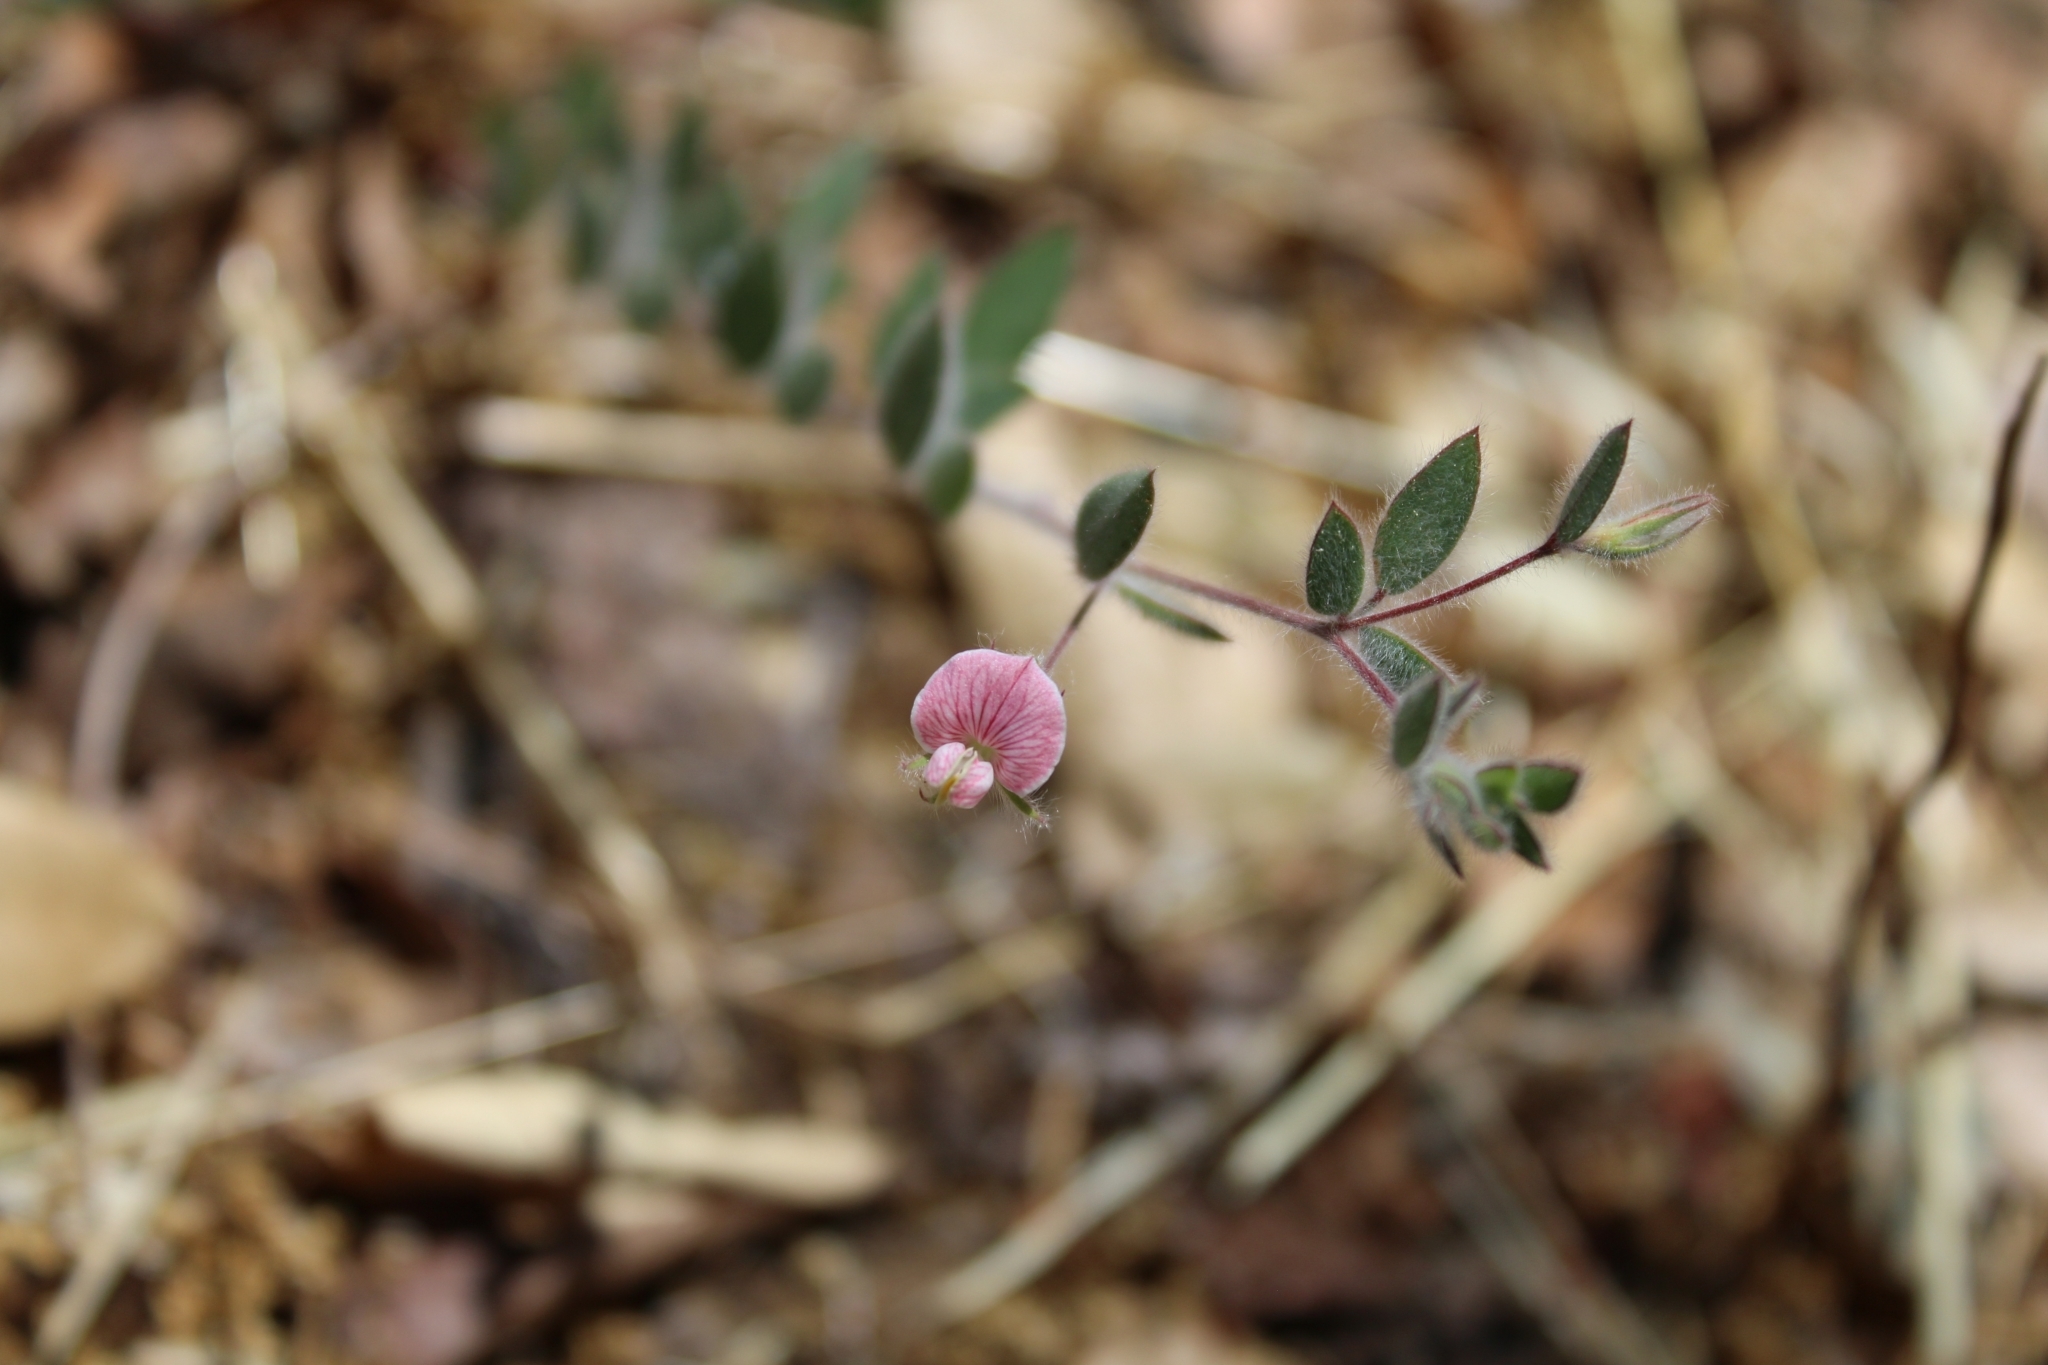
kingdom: Plantae
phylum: Tracheophyta
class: Magnoliopsida
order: Fabales
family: Fabaceae
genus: Acmispon
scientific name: Acmispon americanus
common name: American bird's-foot trefoil
